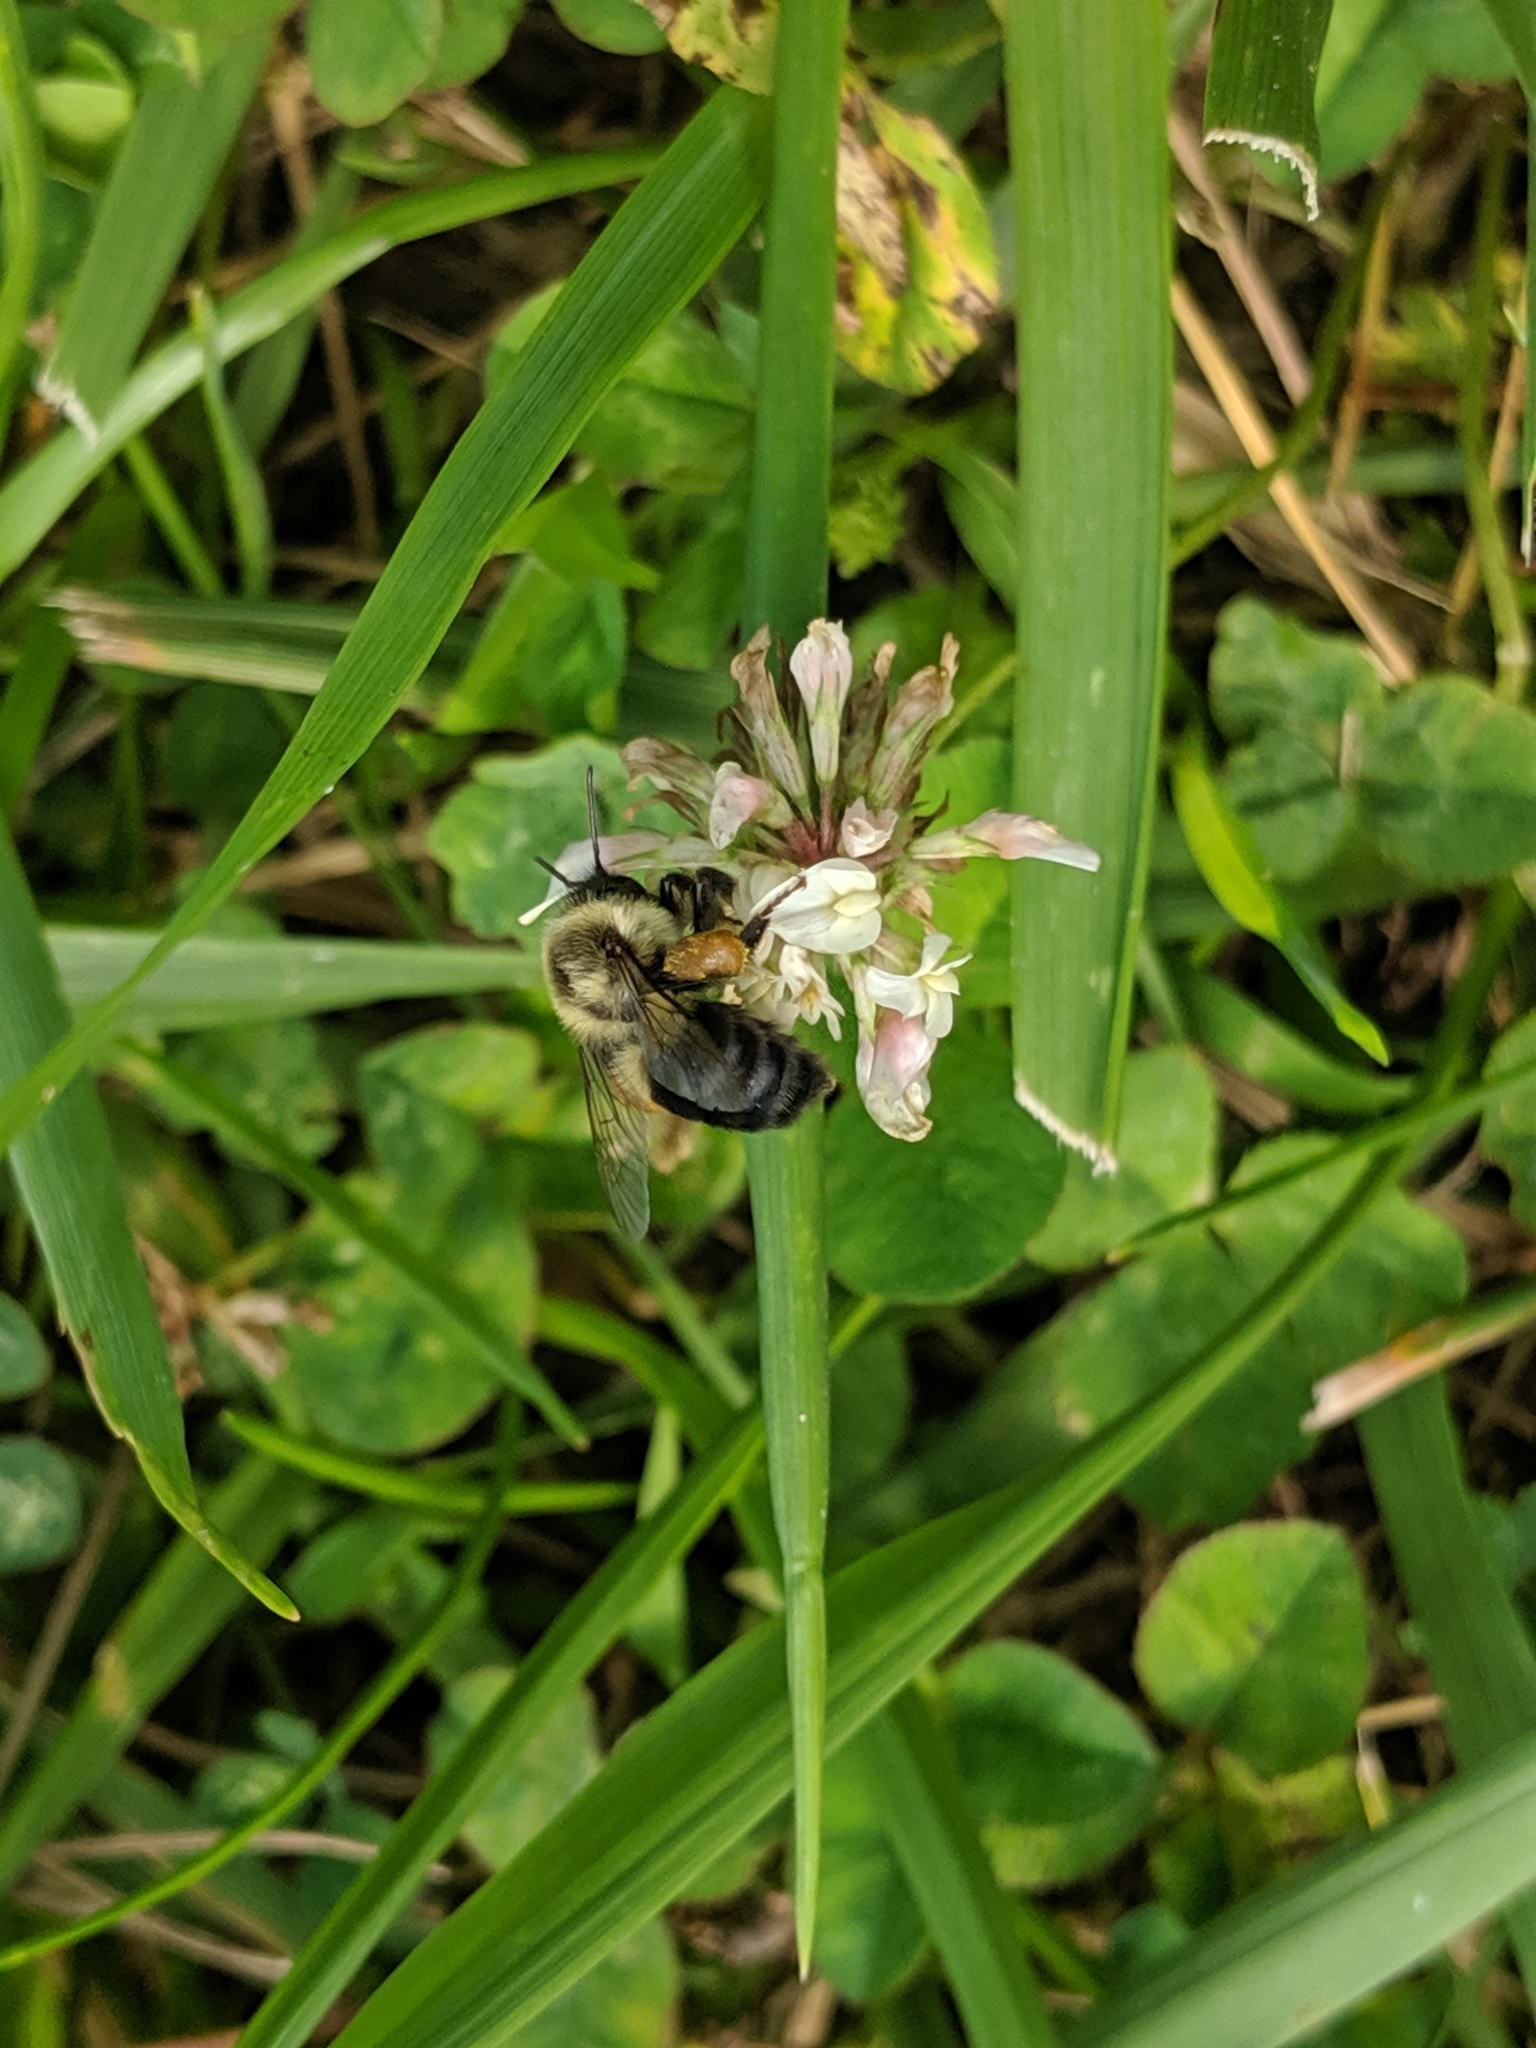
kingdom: Animalia
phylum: Arthropoda
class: Insecta
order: Hymenoptera
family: Apidae
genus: Bombus
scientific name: Bombus impatiens
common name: Common eastern bumble bee
